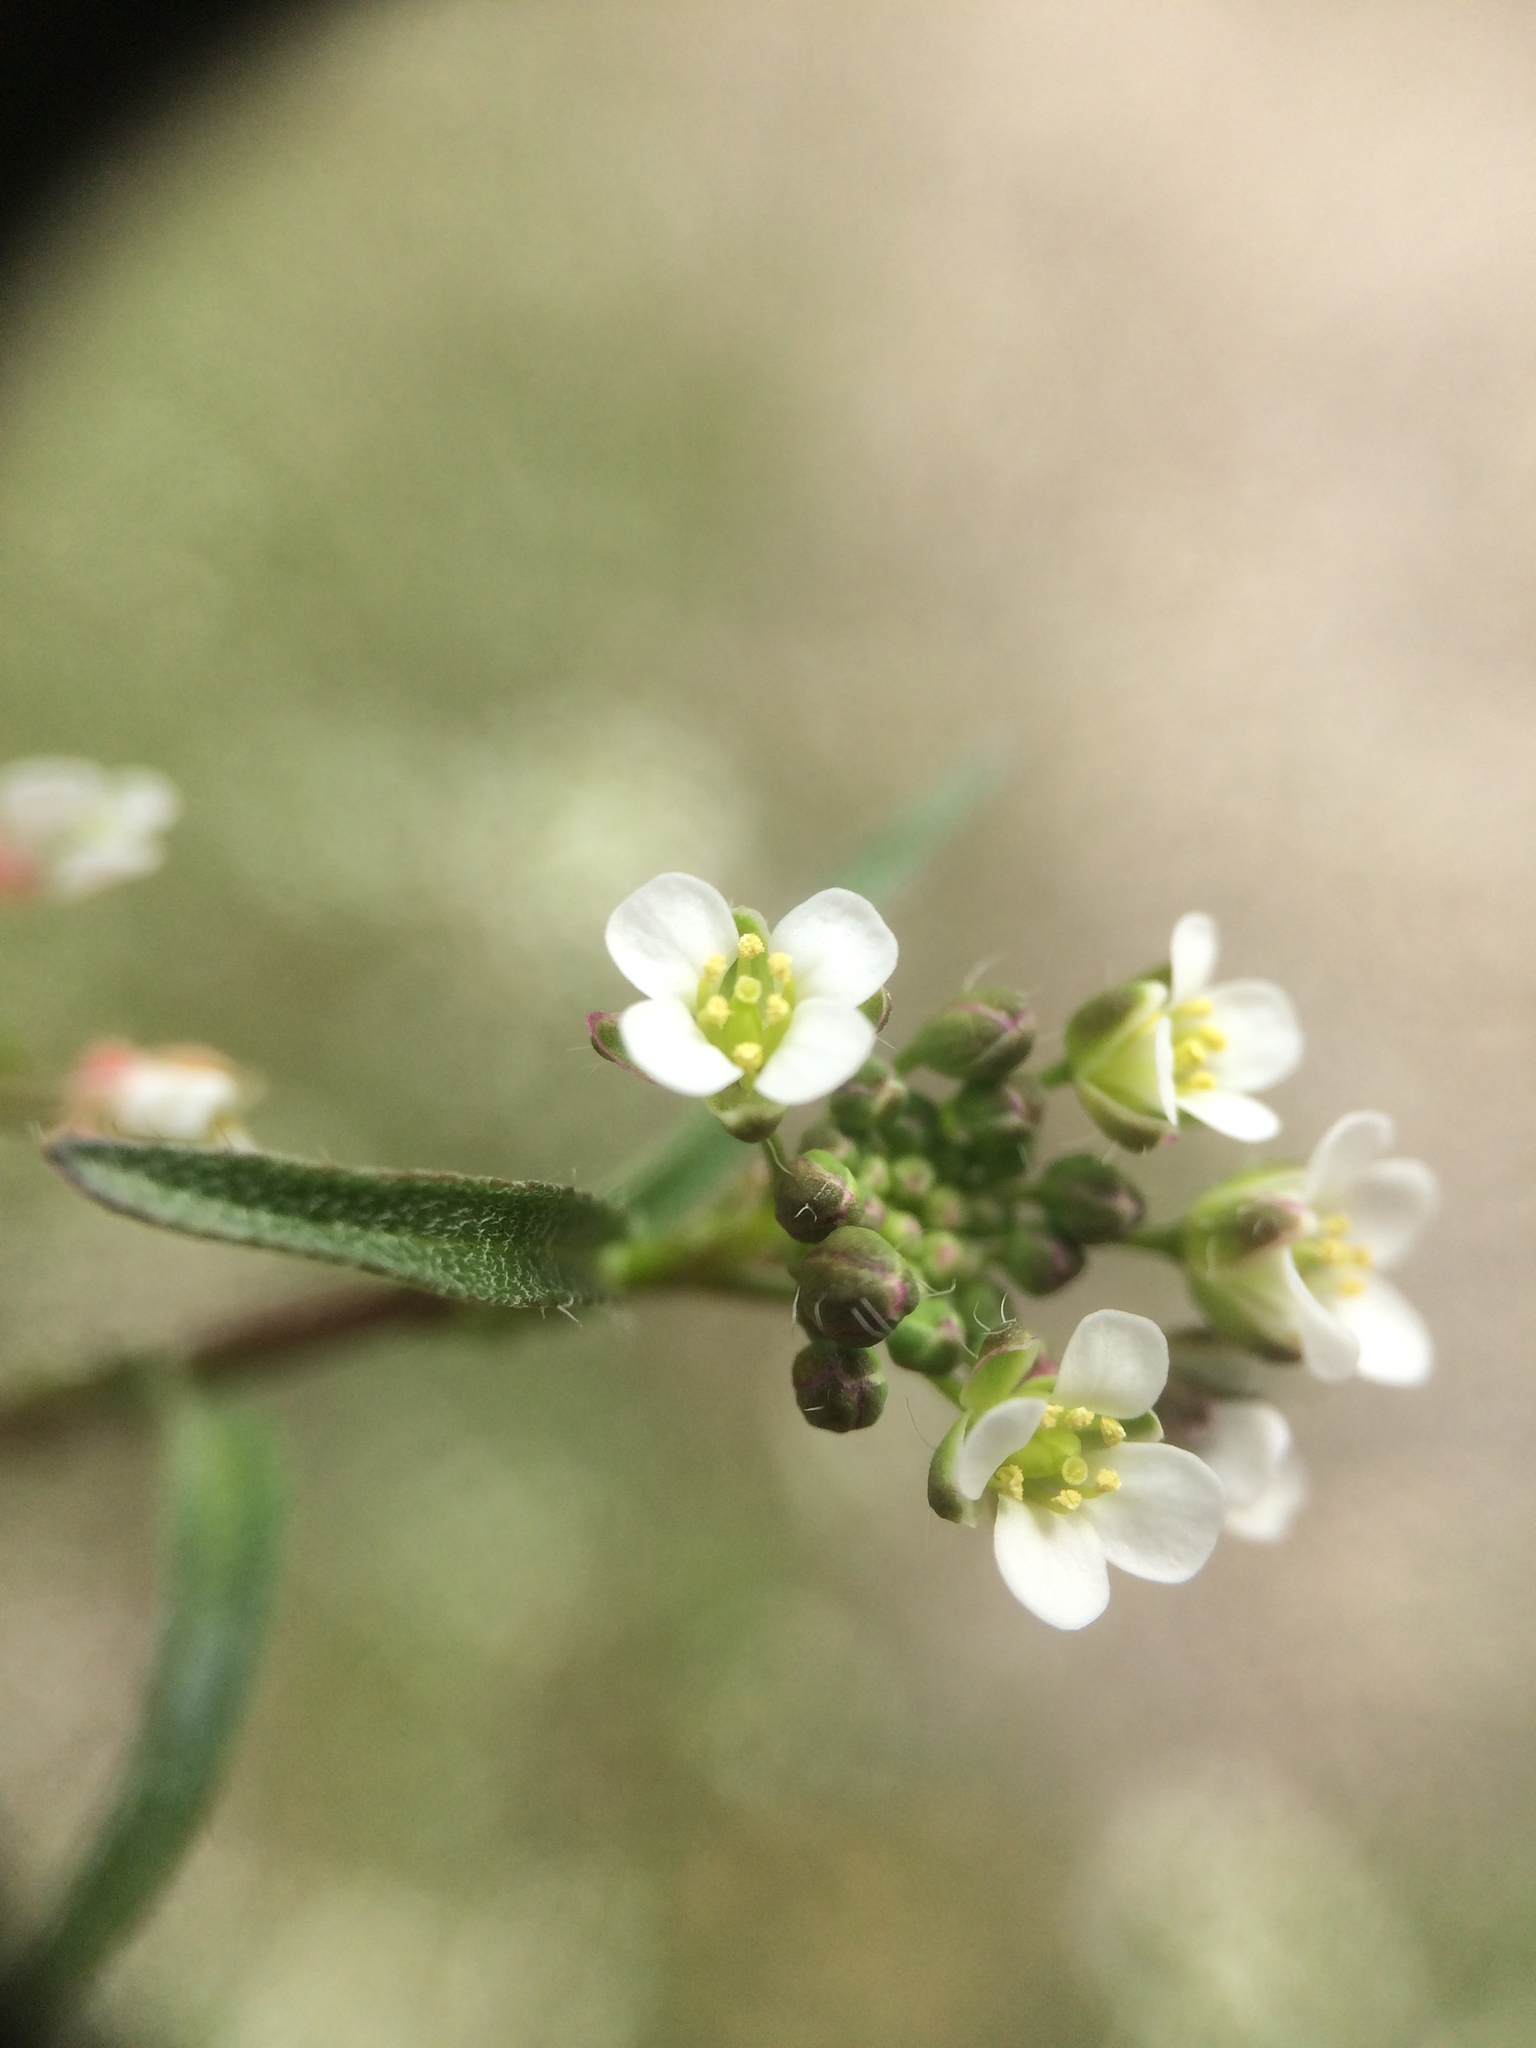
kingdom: Plantae
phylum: Tracheophyta
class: Magnoliopsida
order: Brassicales
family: Brassicaceae
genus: Capsella
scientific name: Capsella bursa-pastoris
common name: Shepherd's purse
